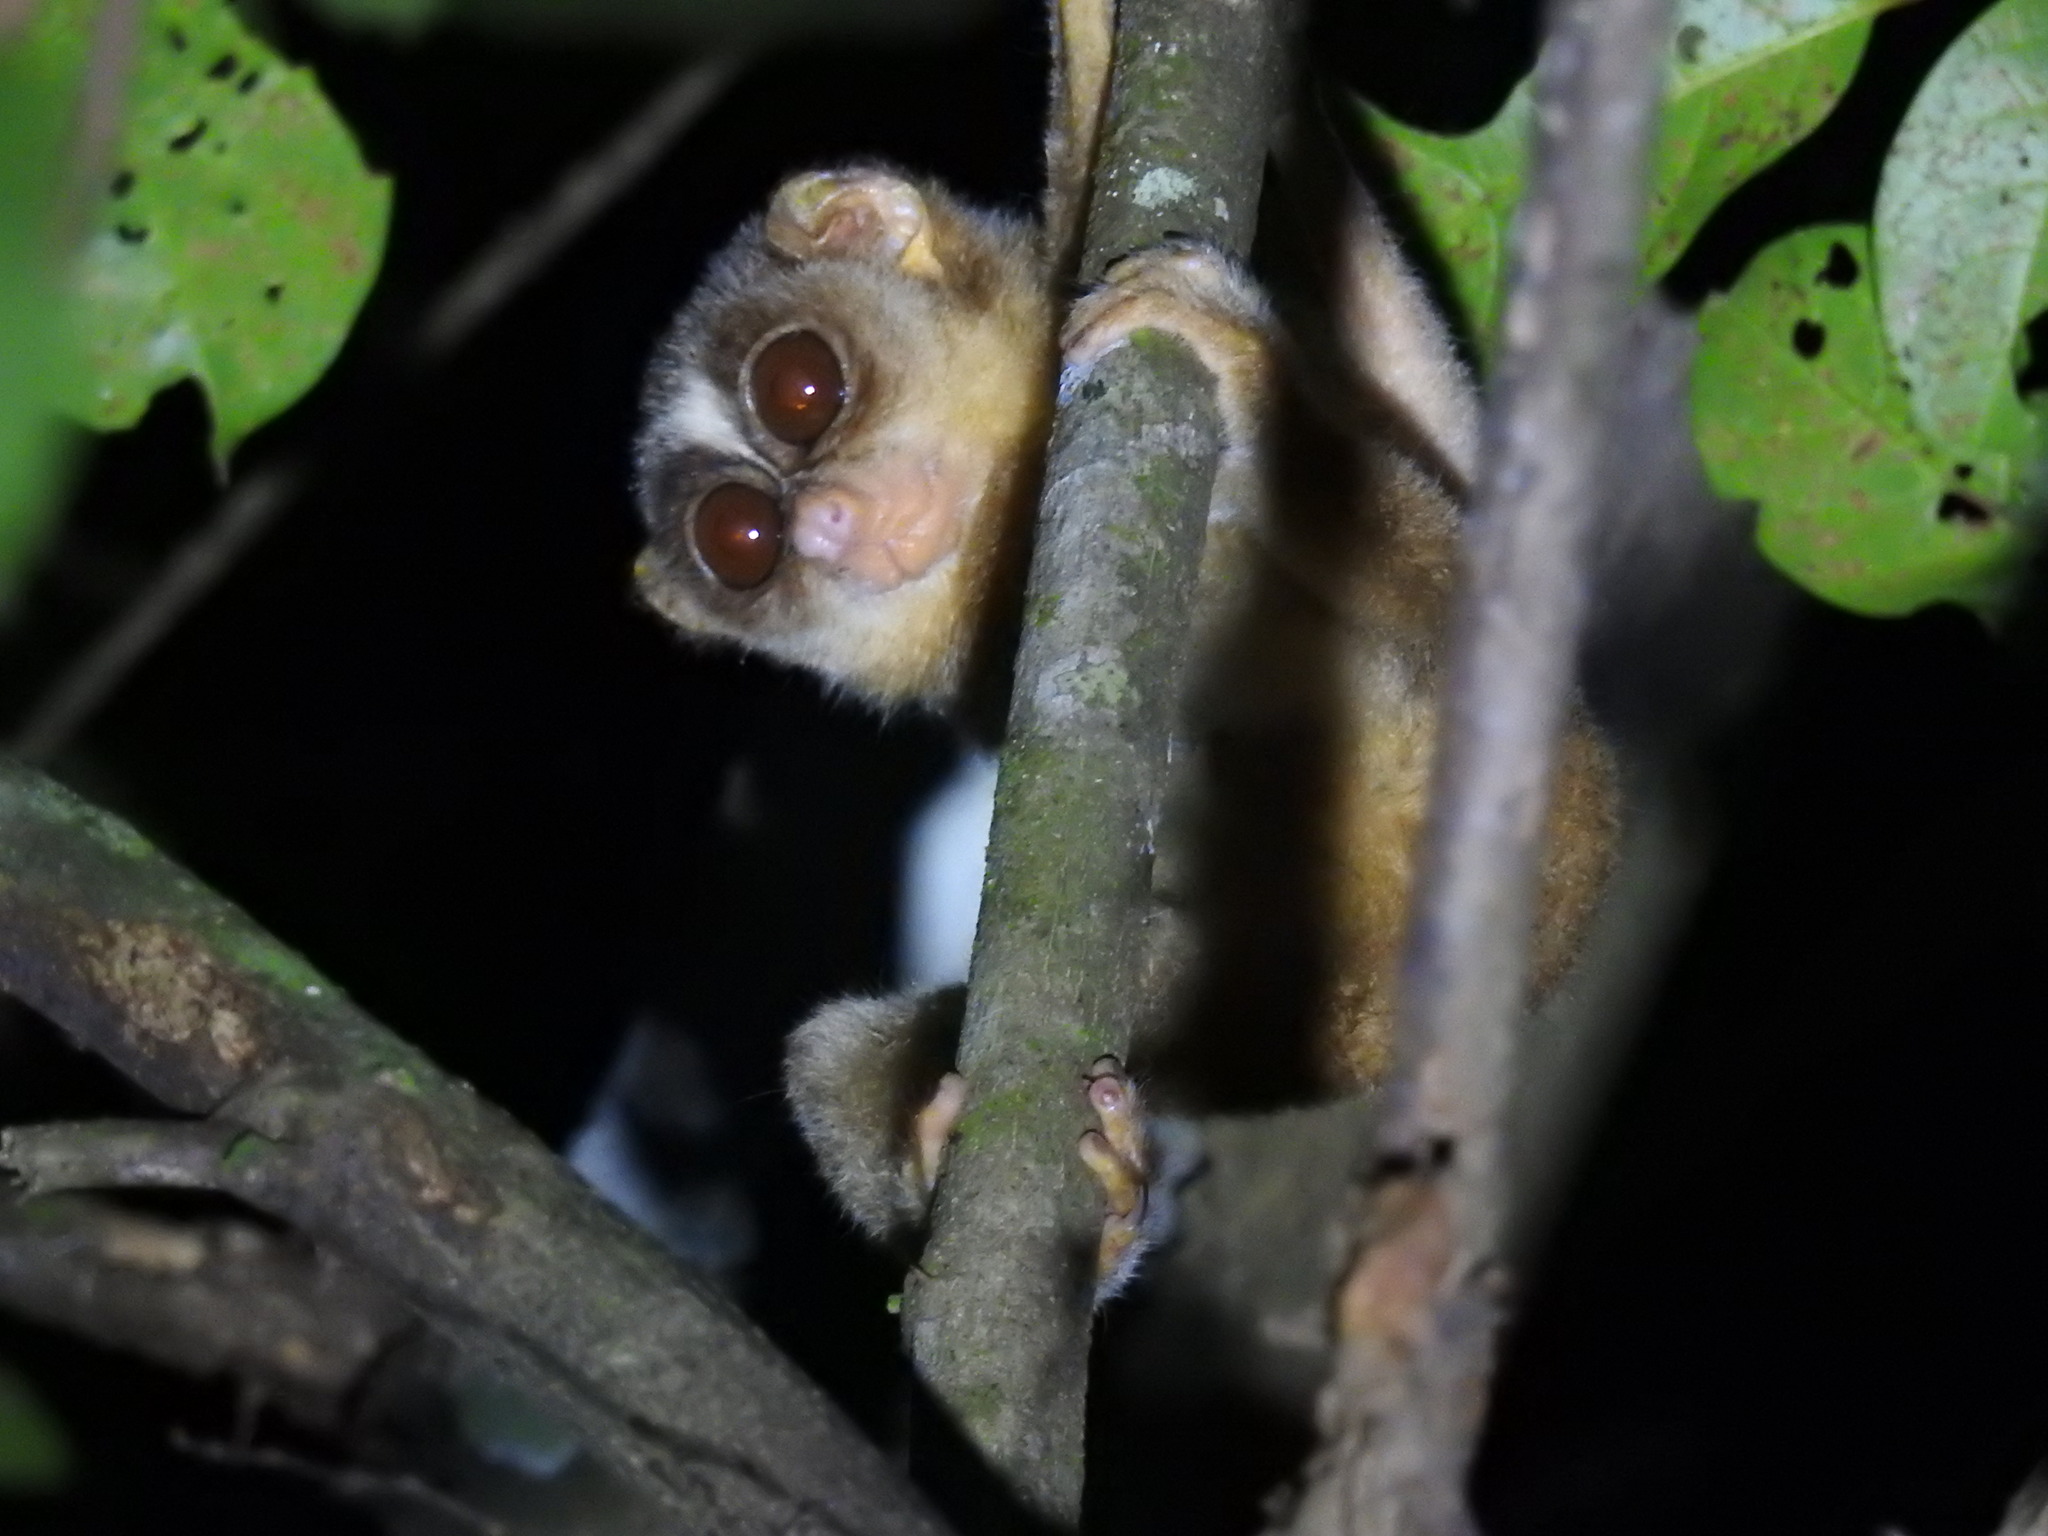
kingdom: Animalia
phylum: Chordata
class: Mammalia
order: Primates
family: Lorisidae
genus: Loris
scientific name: Loris lydekkerianus
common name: Gray slender loris
